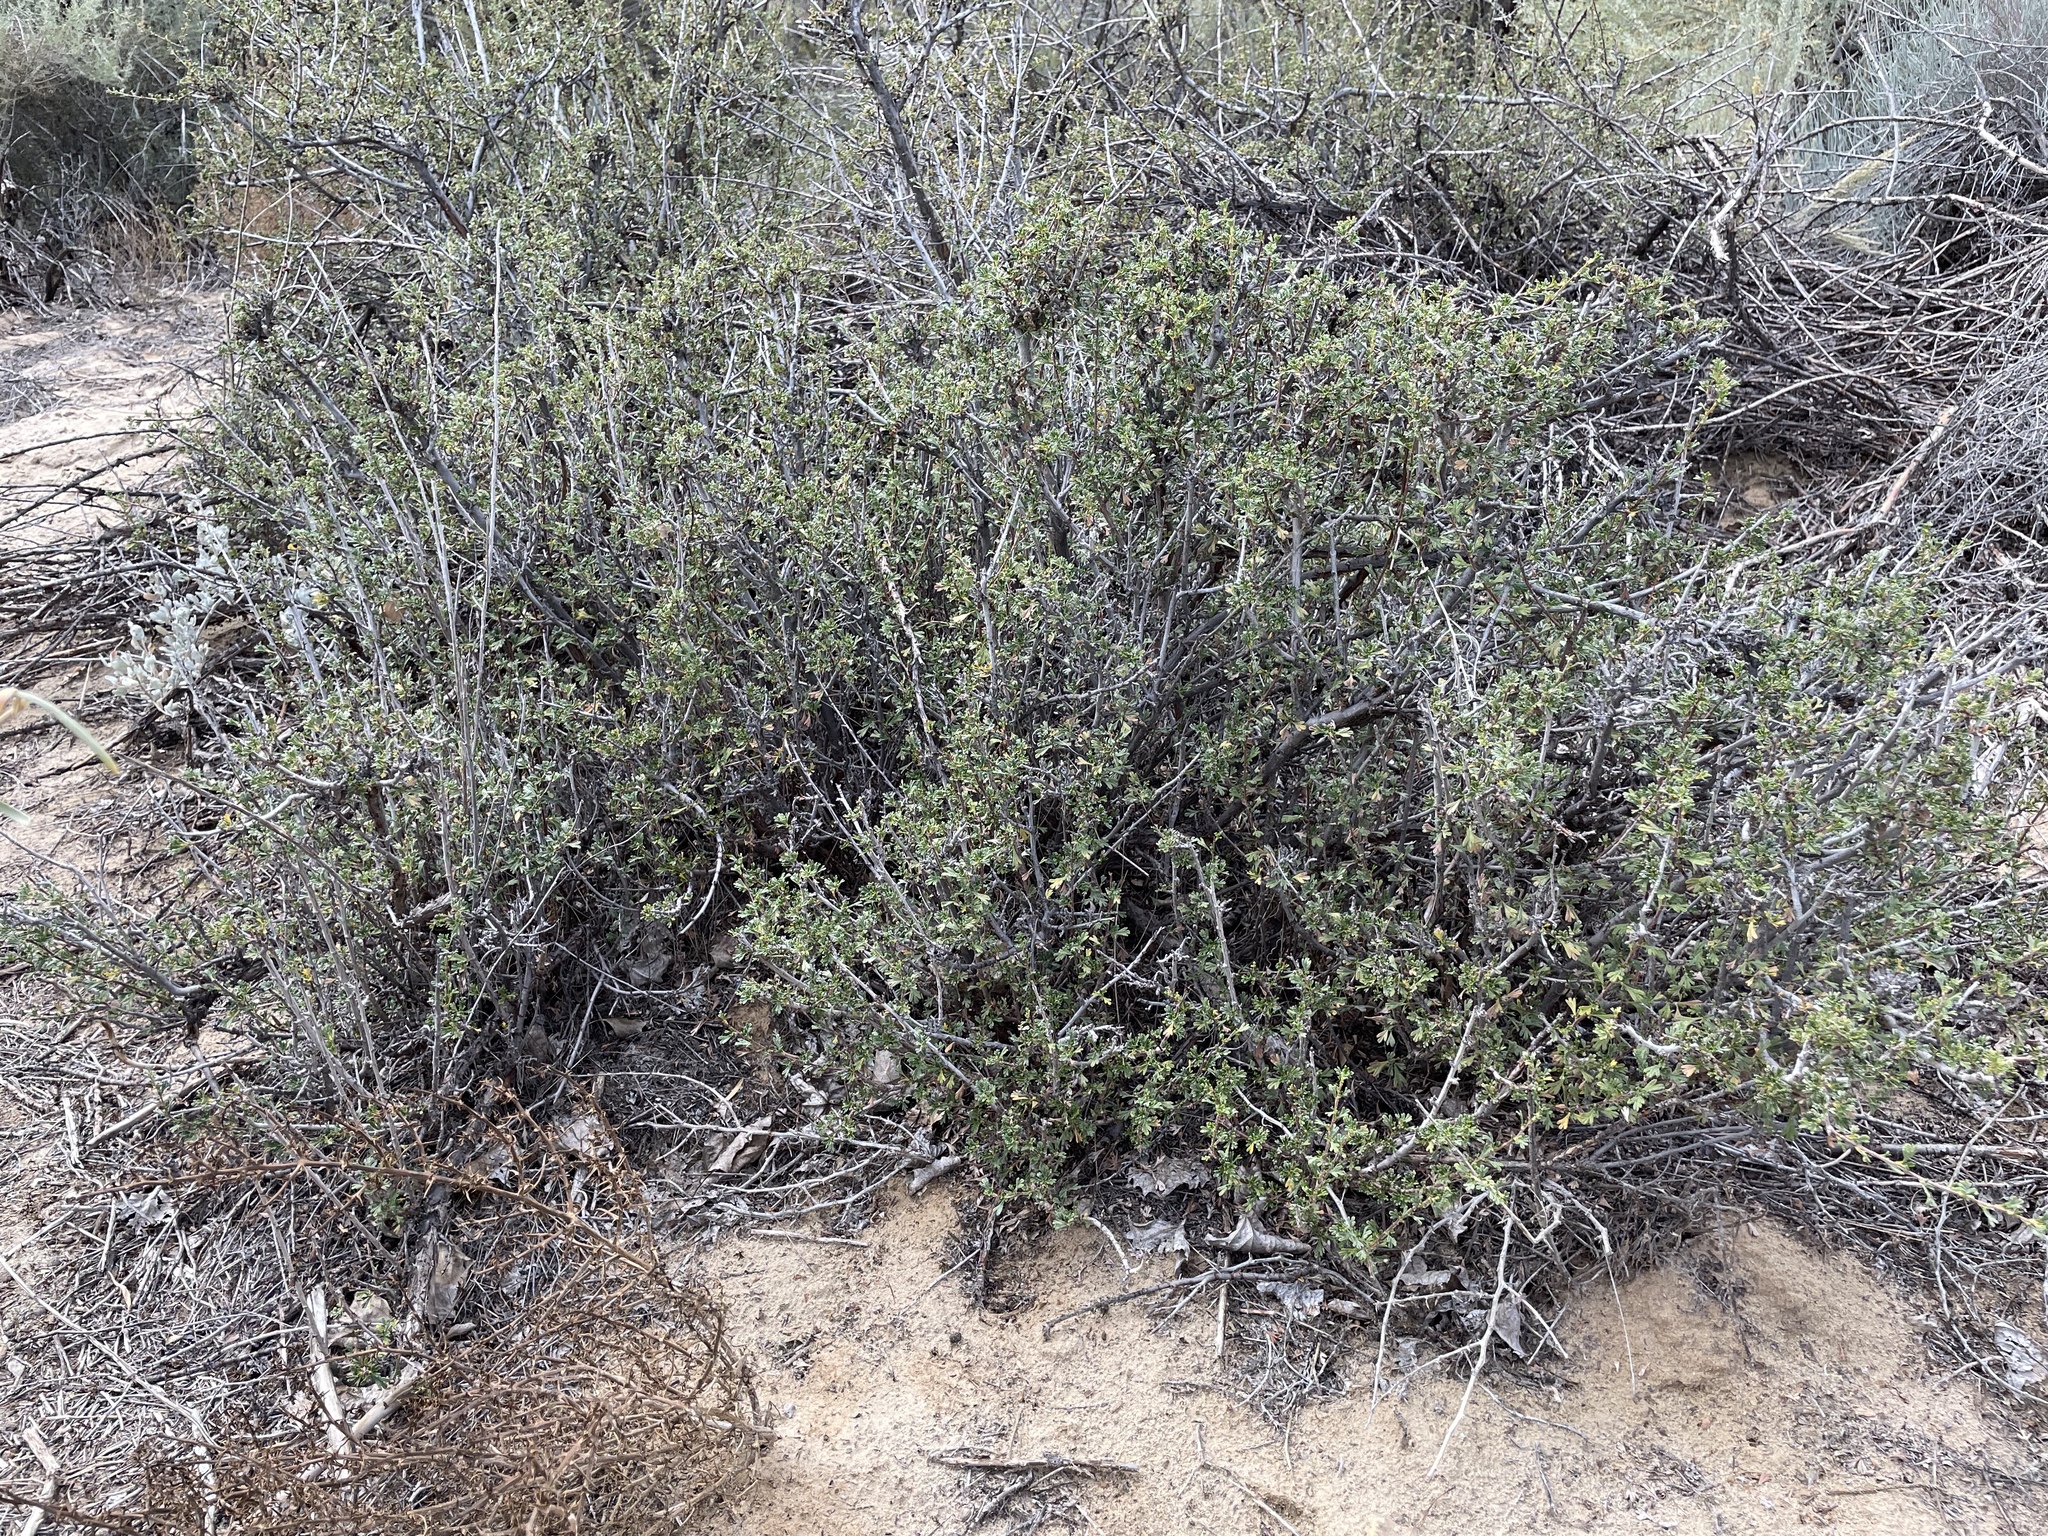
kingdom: Plantae
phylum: Tracheophyta
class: Magnoliopsida
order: Rosales
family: Rosaceae
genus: Purshia
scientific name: Purshia tridentata
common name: Antelope bitterbrush
